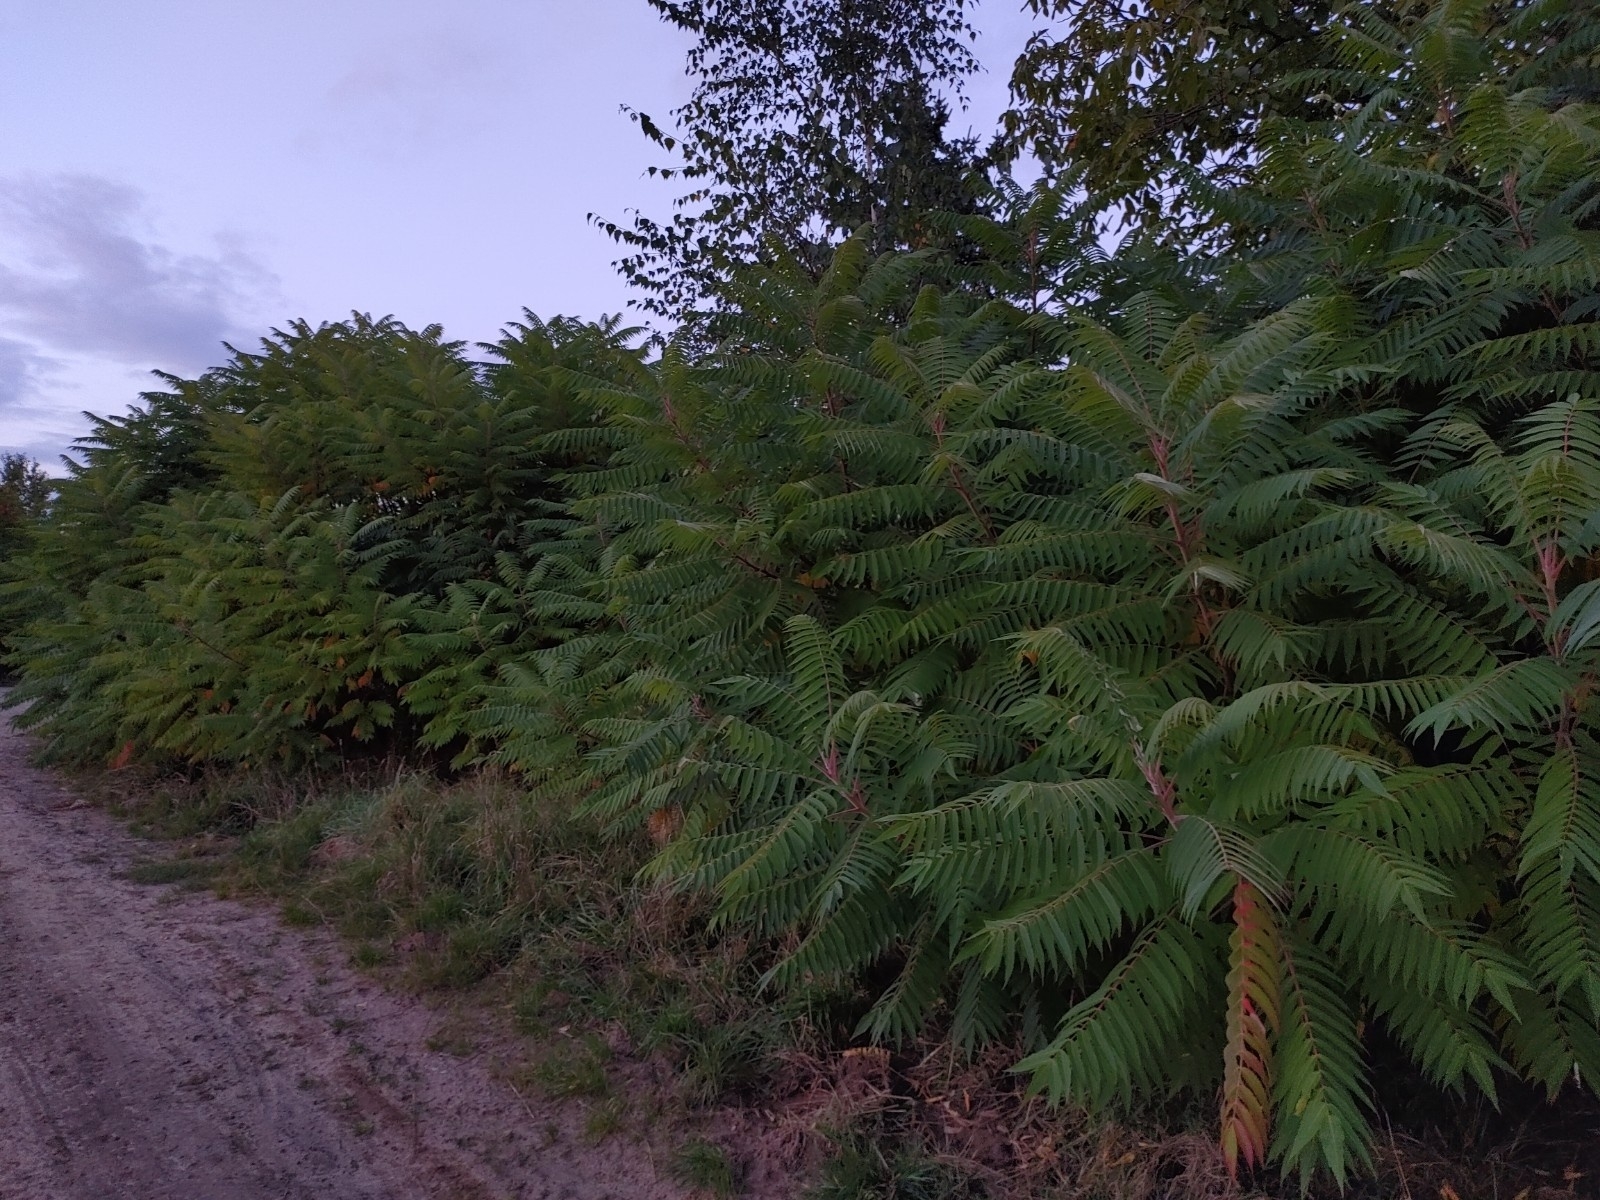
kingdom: Plantae
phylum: Tracheophyta
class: Magnoliopsida
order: Sapindales
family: Anacardiaceae
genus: Rhus
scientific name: Rhus typhina
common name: Staghorn sumac
